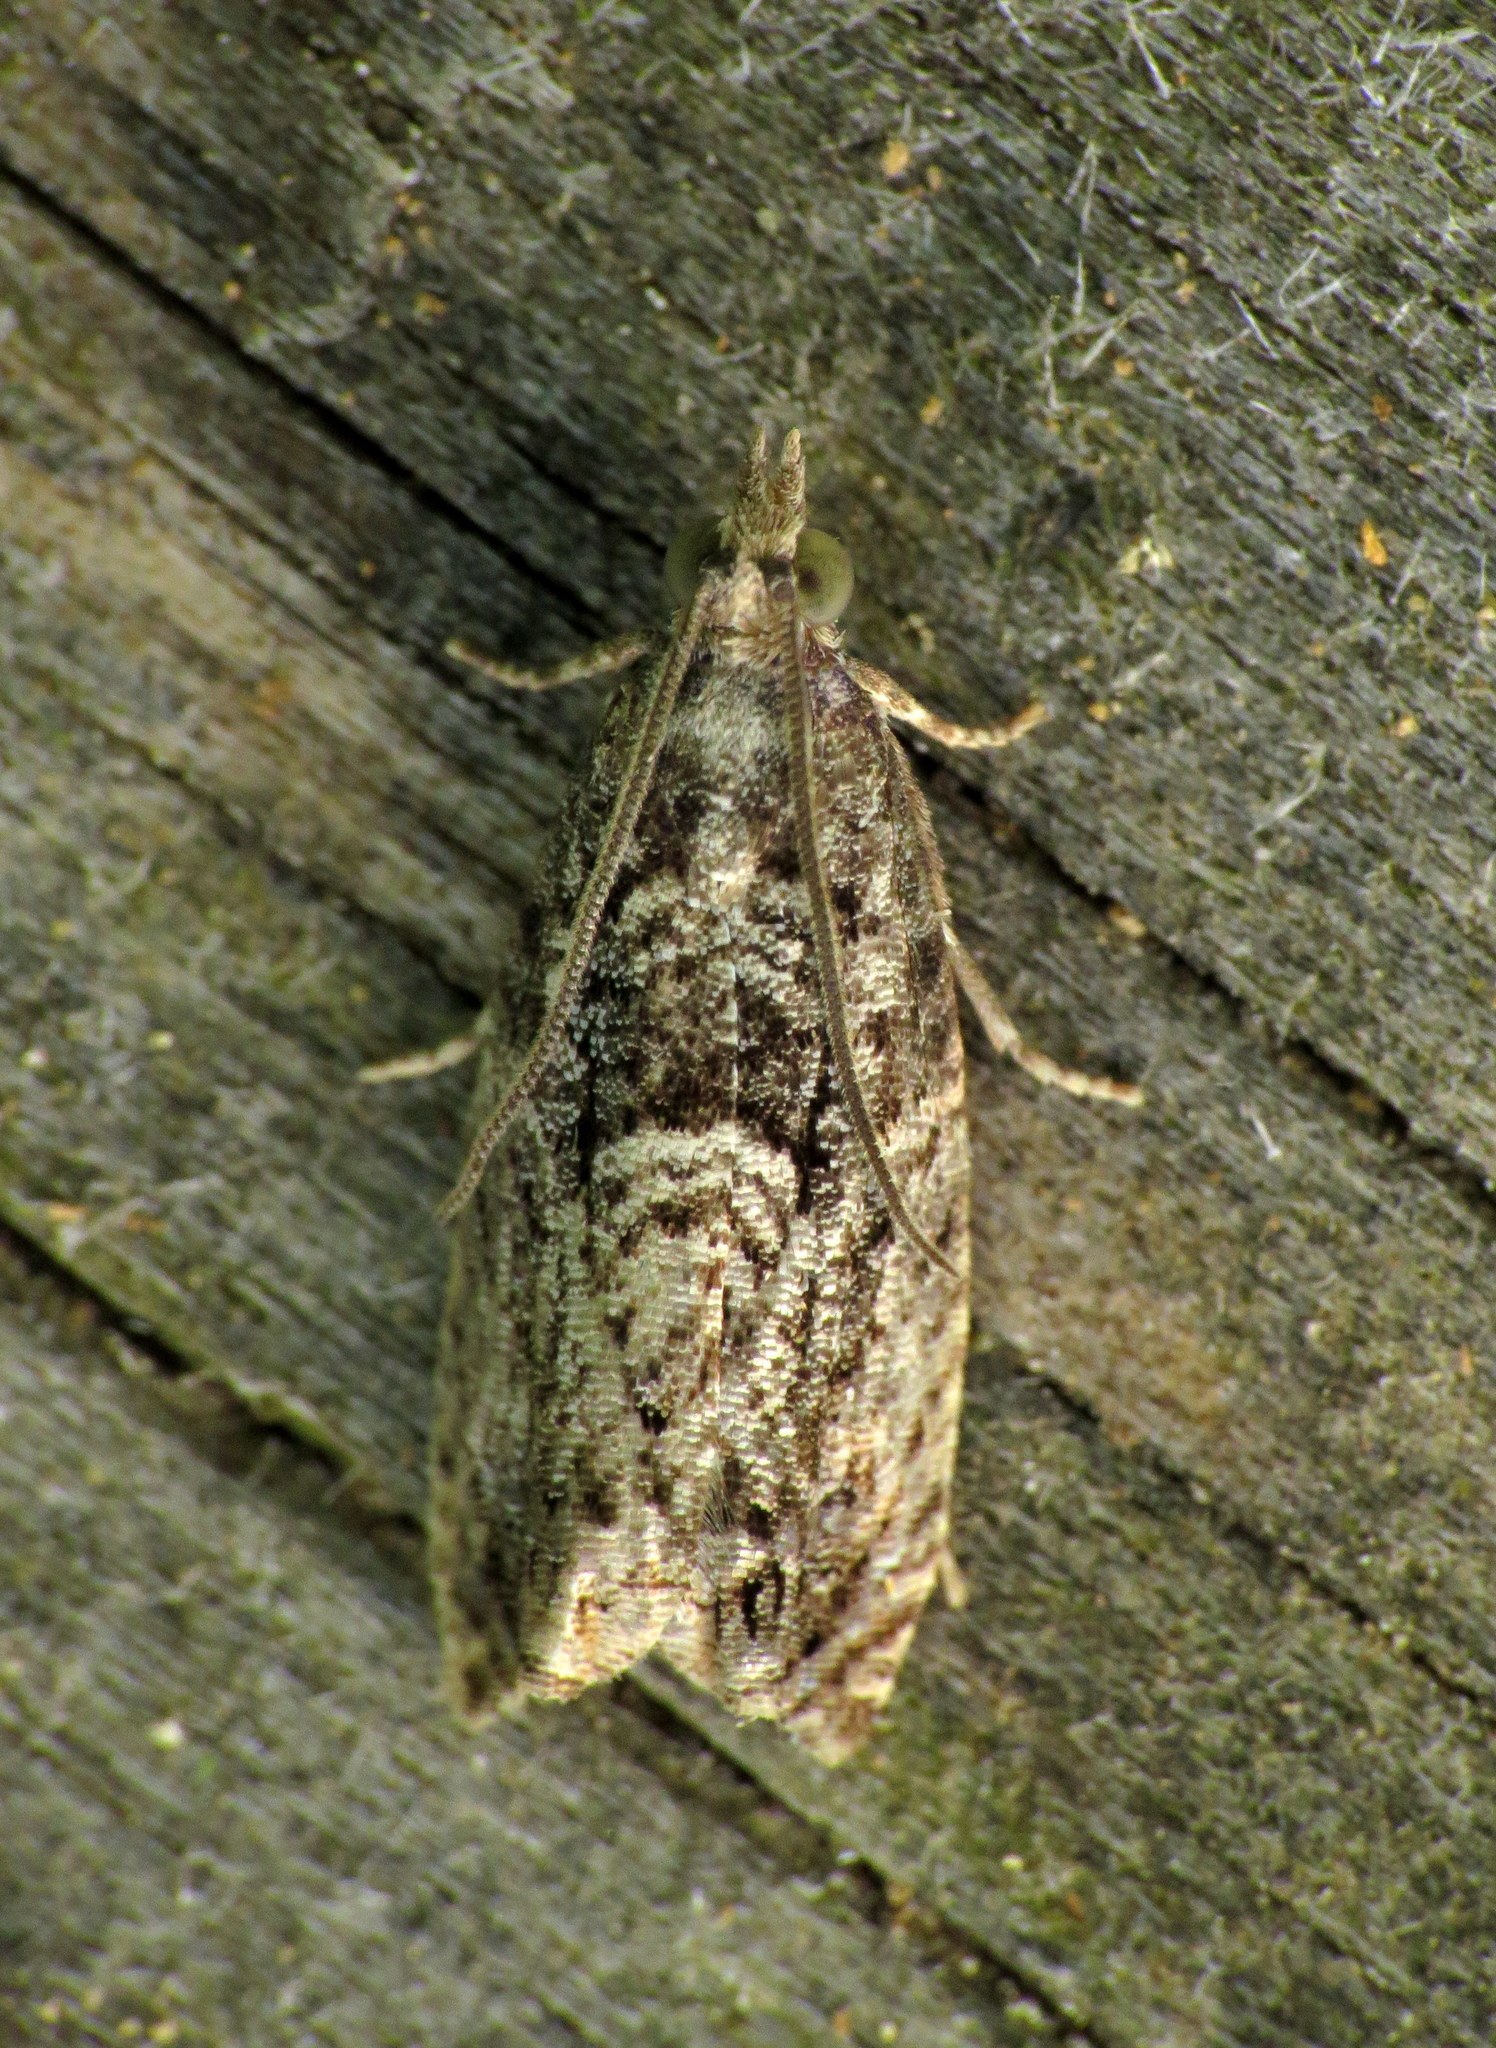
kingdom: Animalia
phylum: Arthropoda
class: Insecta
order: Lepidoptera
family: Tortricidae
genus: Epinotia
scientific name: Epinotia nonana
